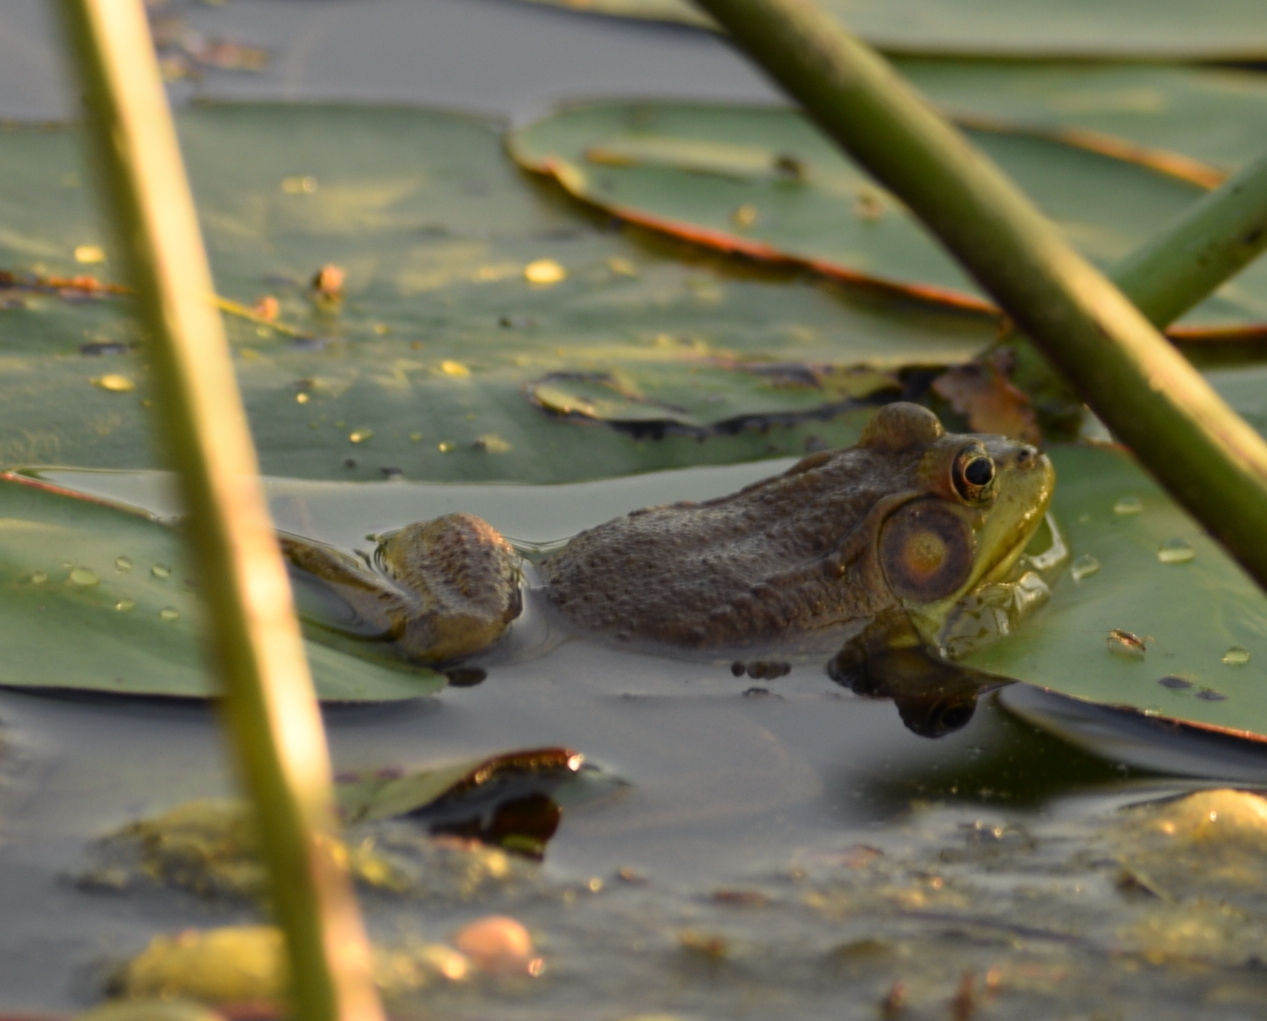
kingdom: Animalia
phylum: Chordata
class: Amphibia
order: Anura
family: Ranidae
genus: Lithobates
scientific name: Lithobates clamitans
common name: Green frog
